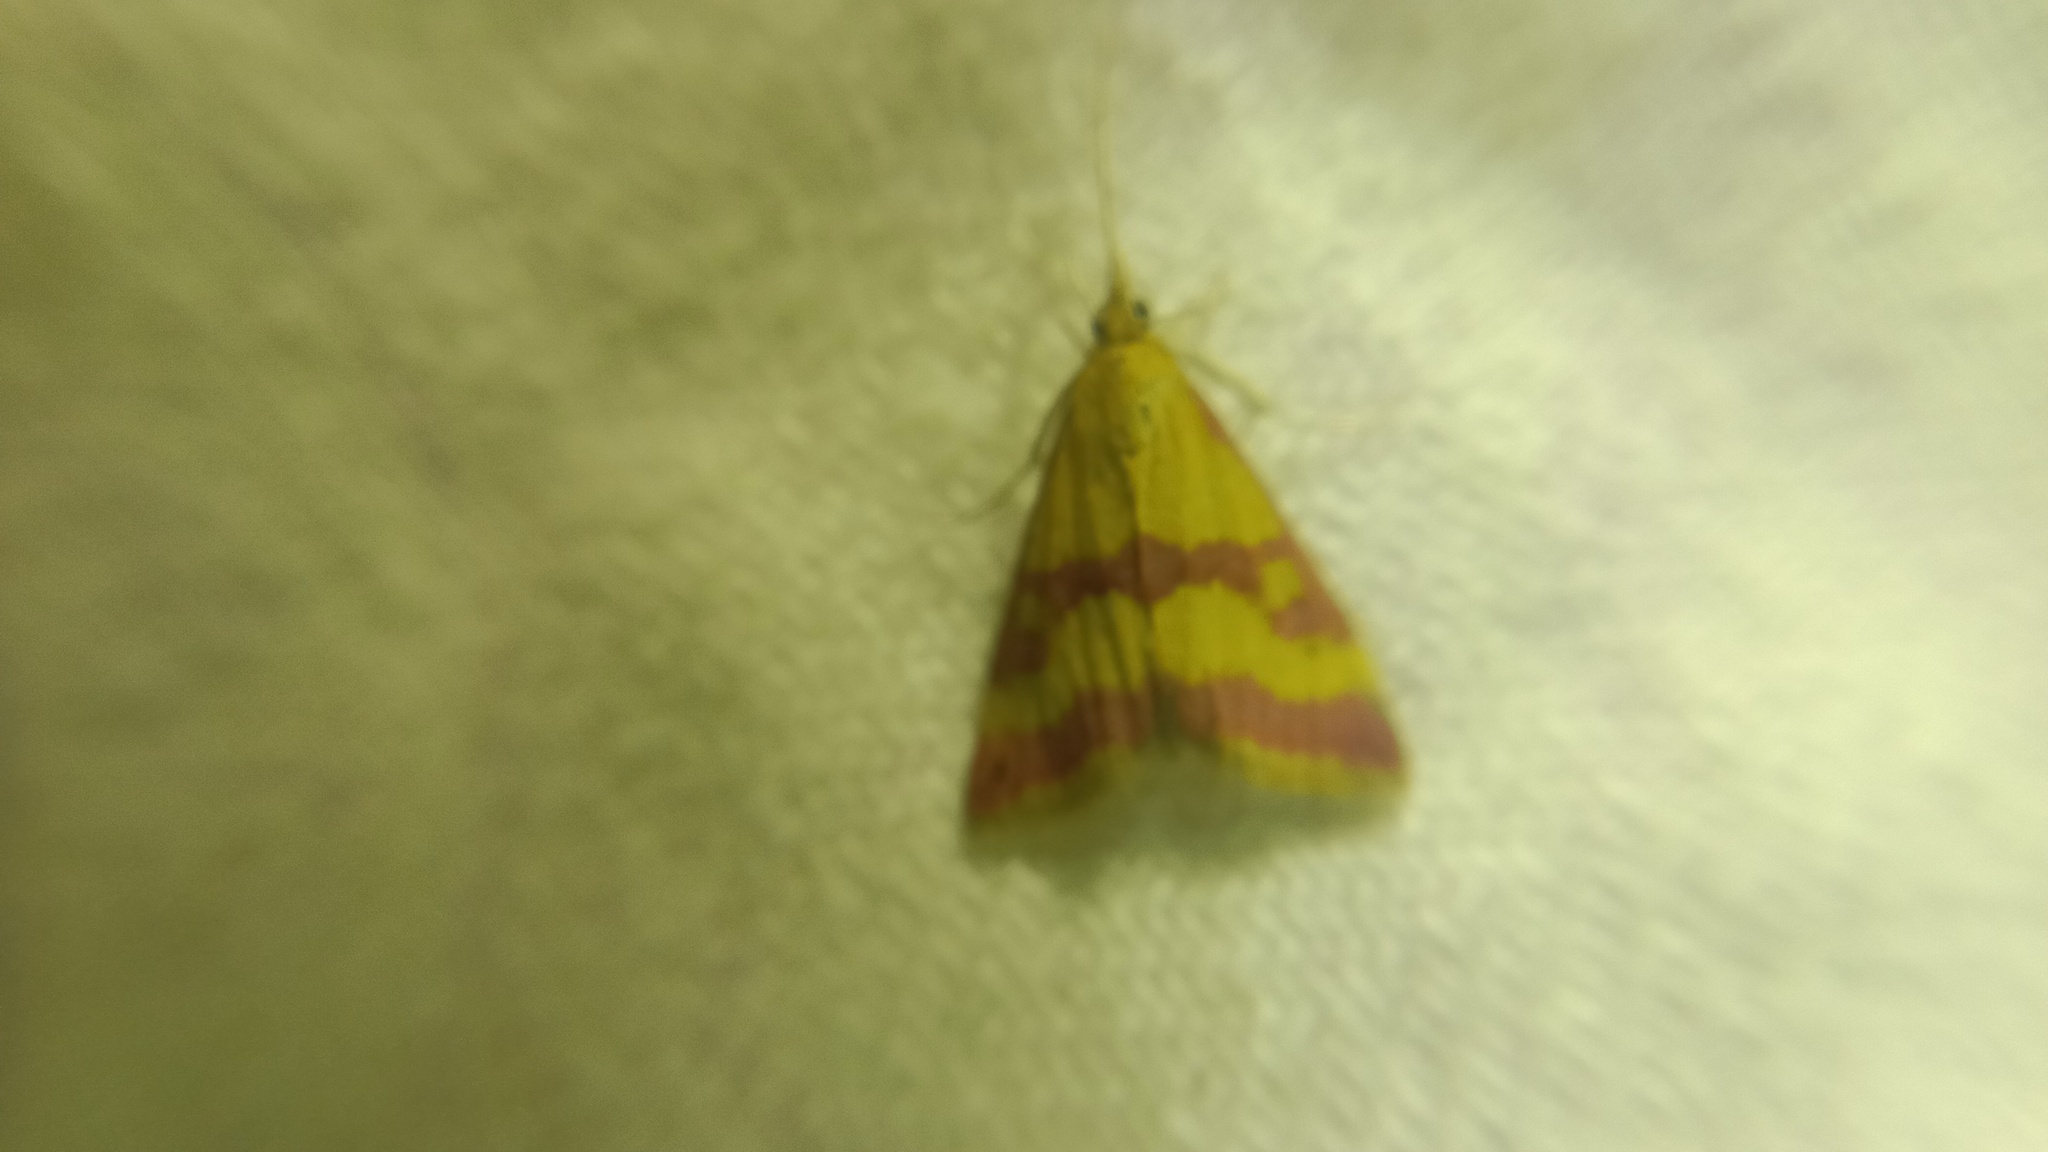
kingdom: Animalia
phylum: Arthropoda
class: Insecta
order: Lepidoptera
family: Crambidae
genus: Pyrausta
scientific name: Pyrausta sanguinalis
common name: Scarce crimson and gold
